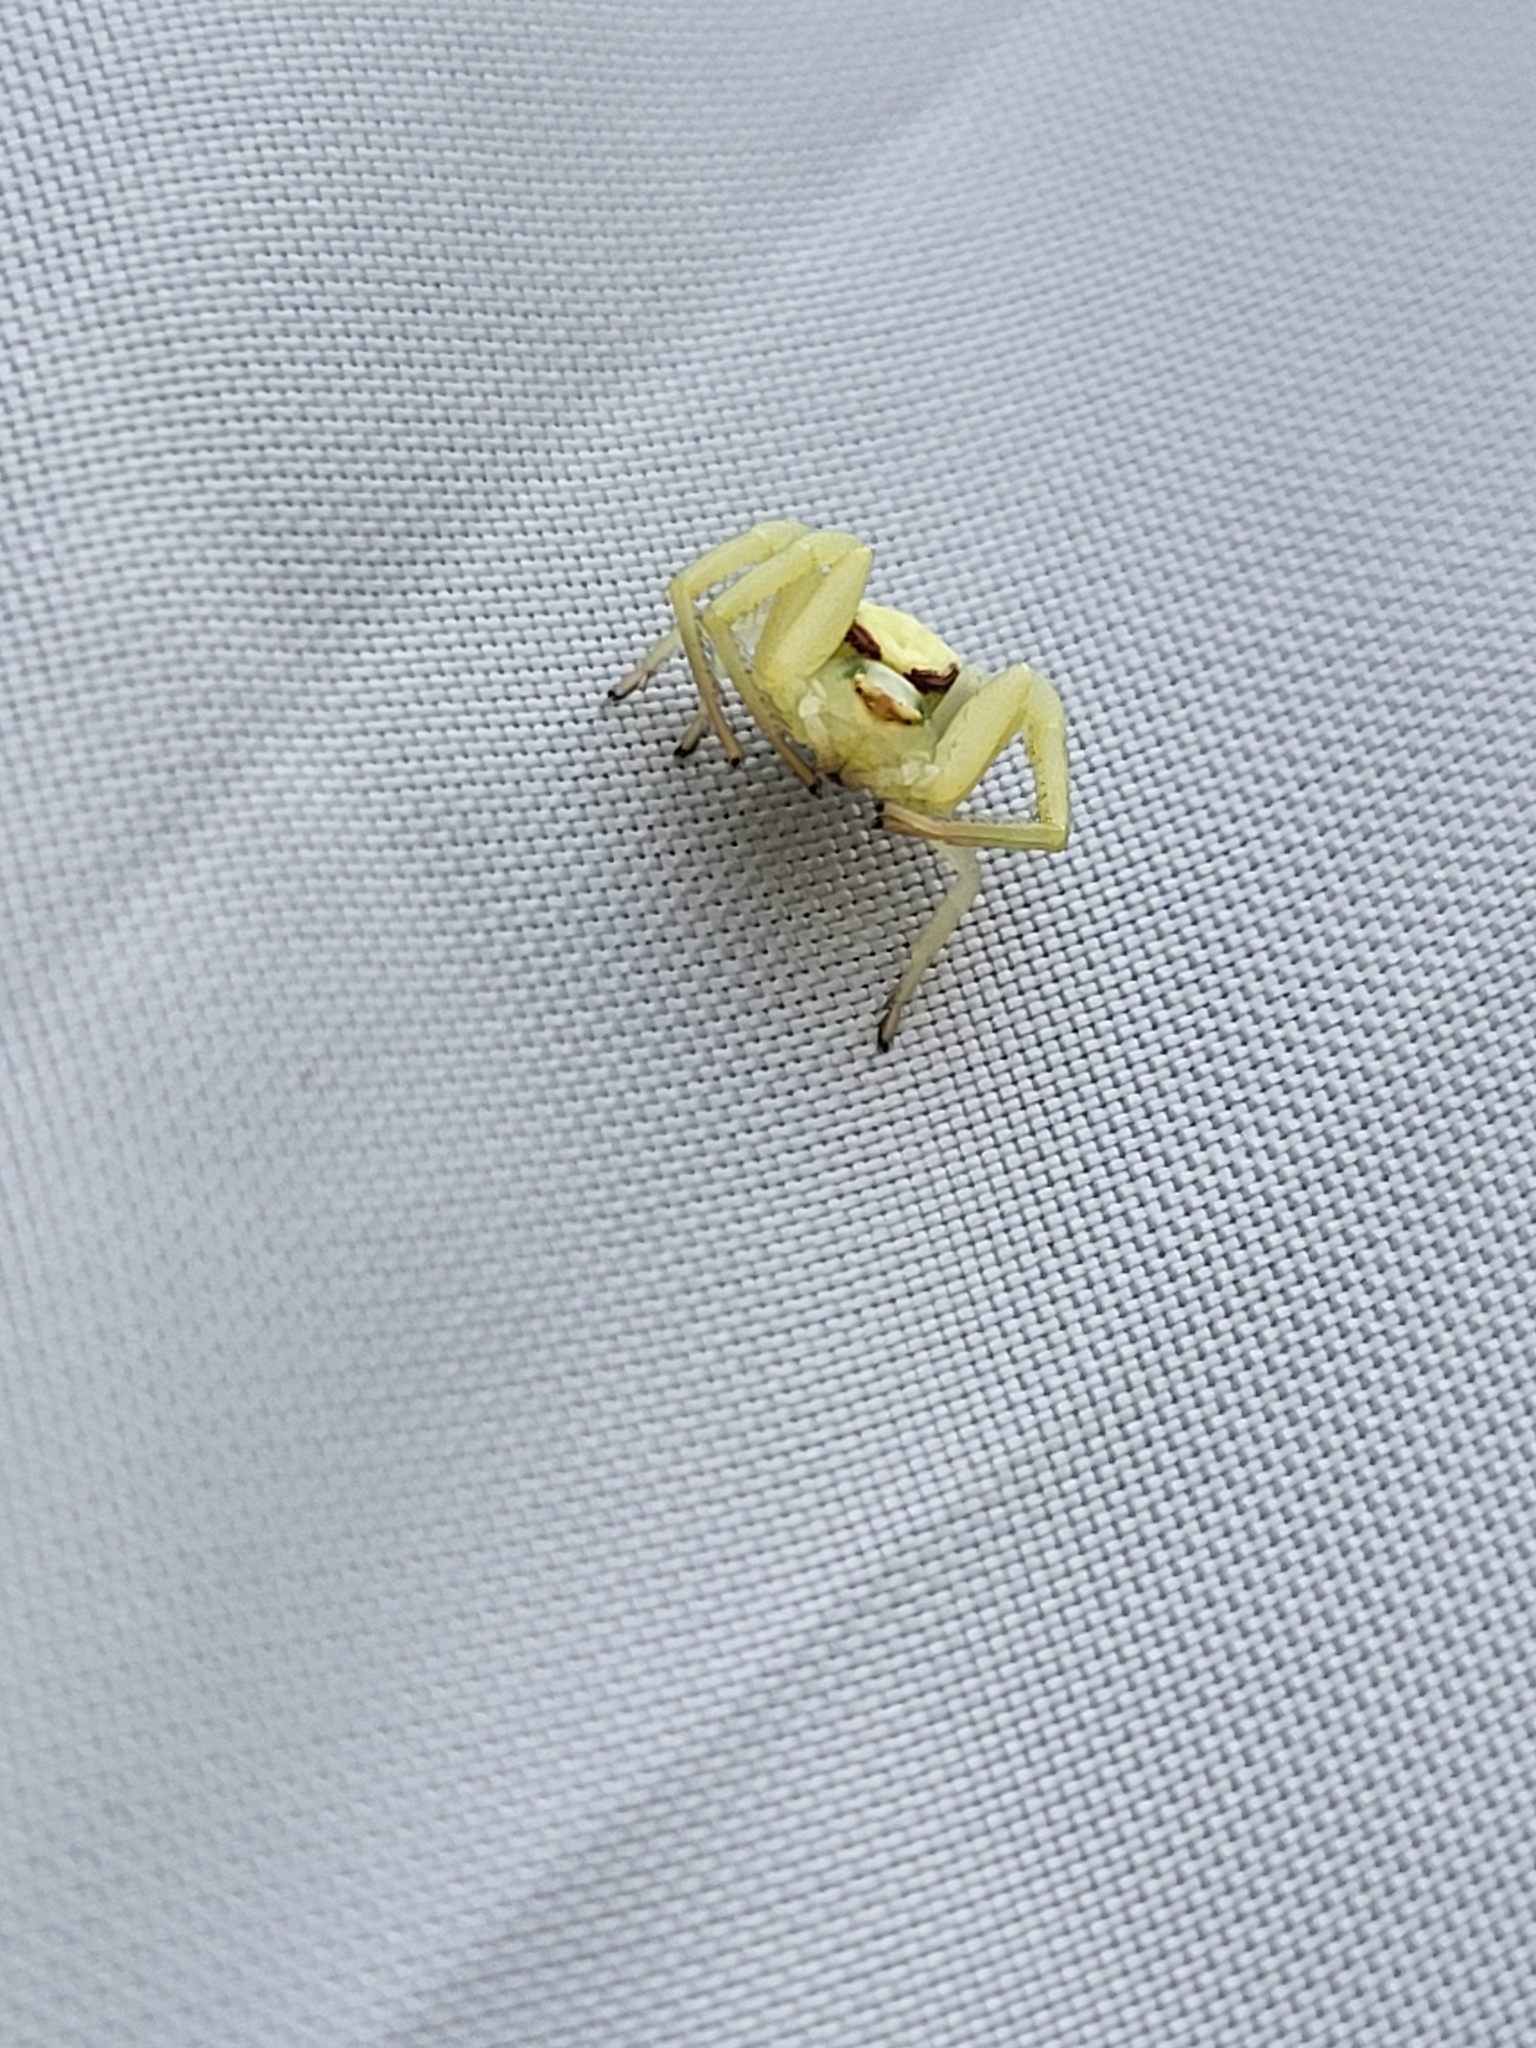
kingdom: Animalia
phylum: Arthropoda
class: Arachnida
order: Araneae
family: Thomisidae
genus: Misumena
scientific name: Misumena vatia
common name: Goldenrod crab spider
